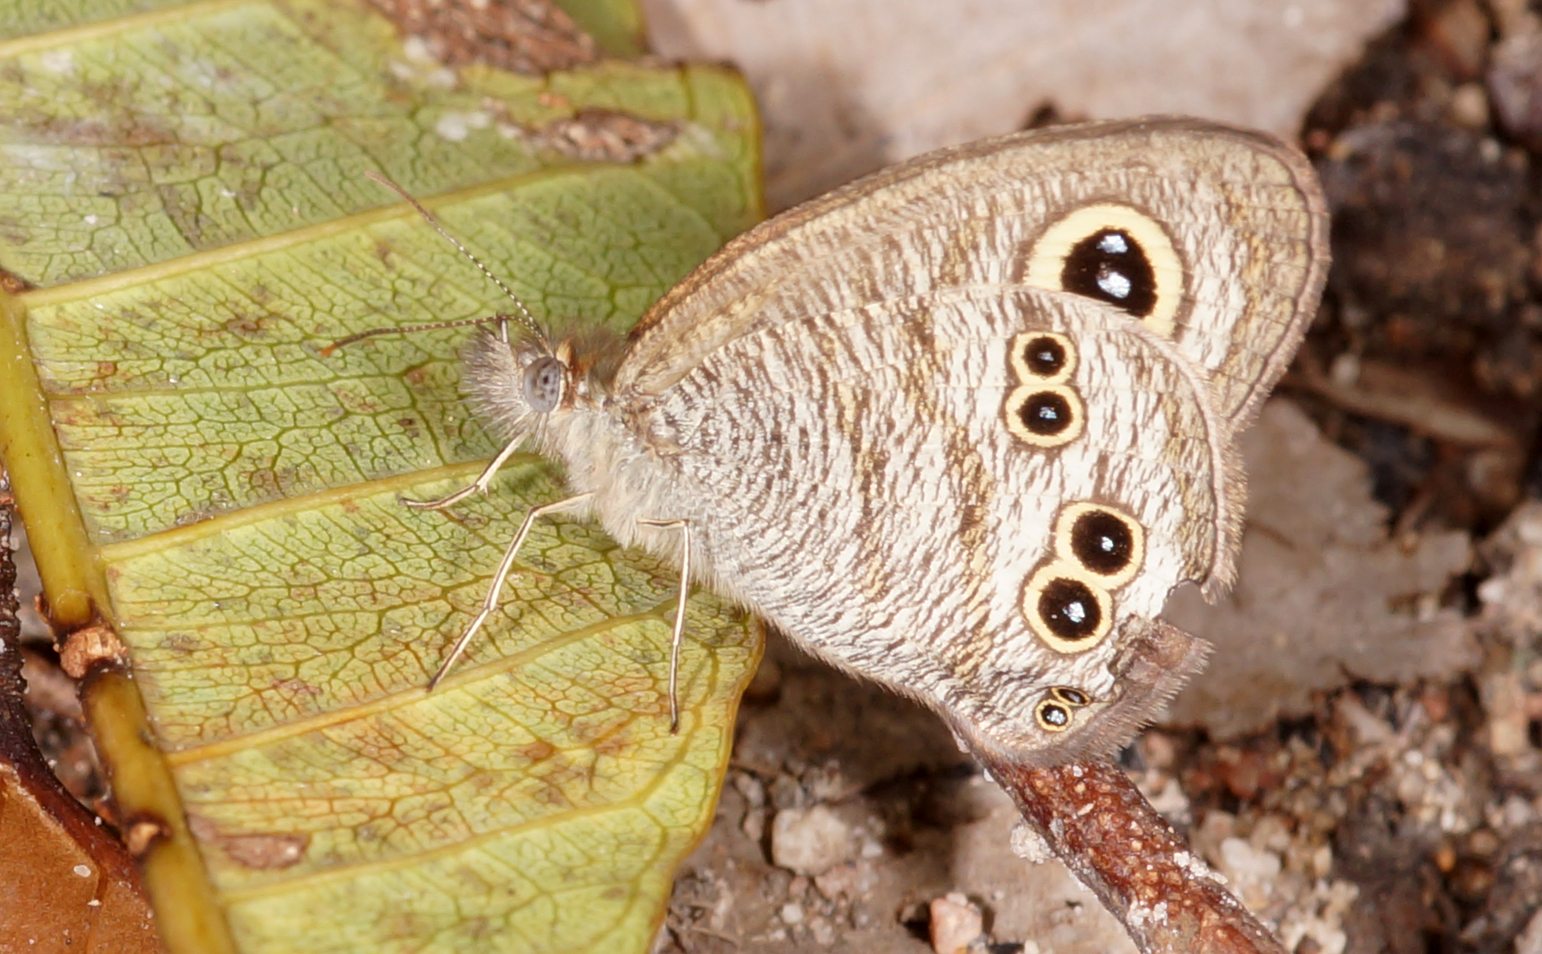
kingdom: Animalia
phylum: Arthropoda
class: Insecta
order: Lepidoptera
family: Nymphalidae
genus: Ypthima
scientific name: Ypthima baldus
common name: Common five-ring
